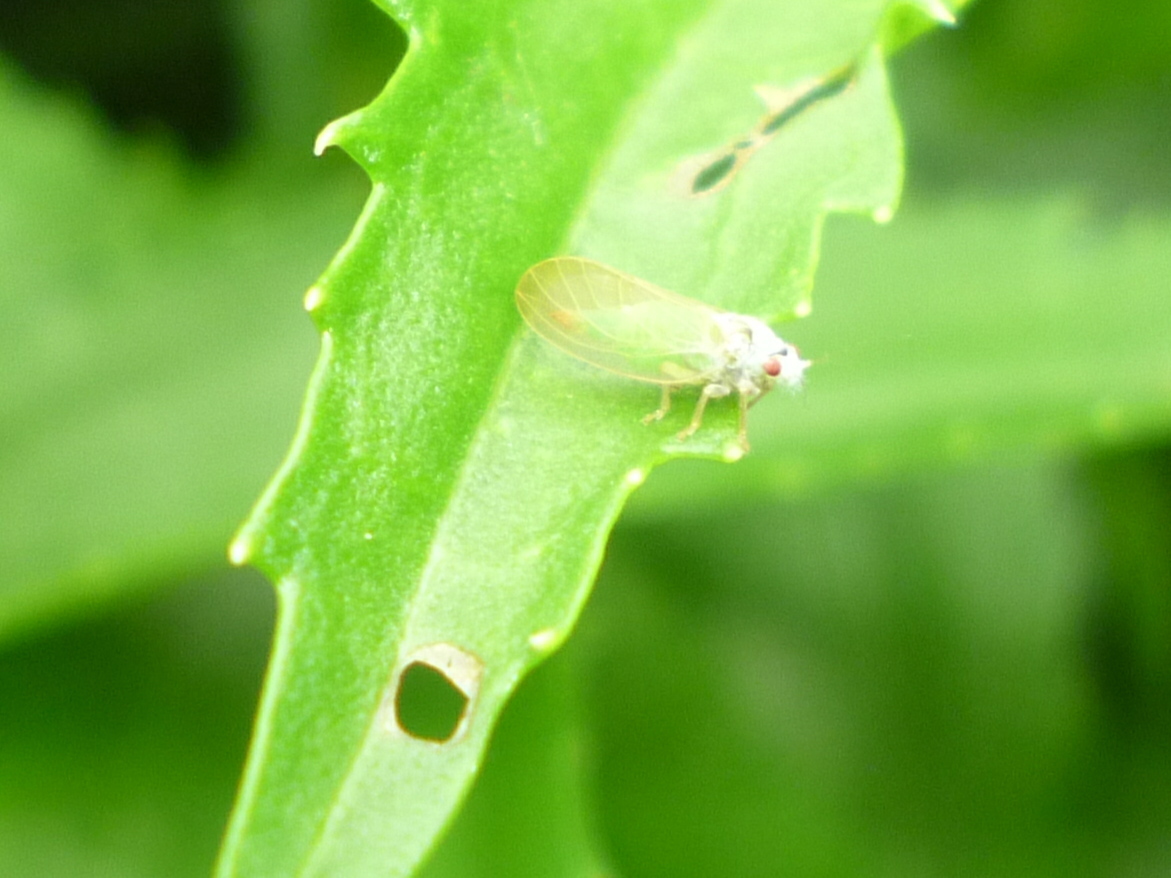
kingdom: Animalia
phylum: Arthropoda
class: Insecta
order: Hemiptera
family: Psyllidae
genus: Psylla
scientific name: Psylla buxi
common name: Boxwood psyllid
